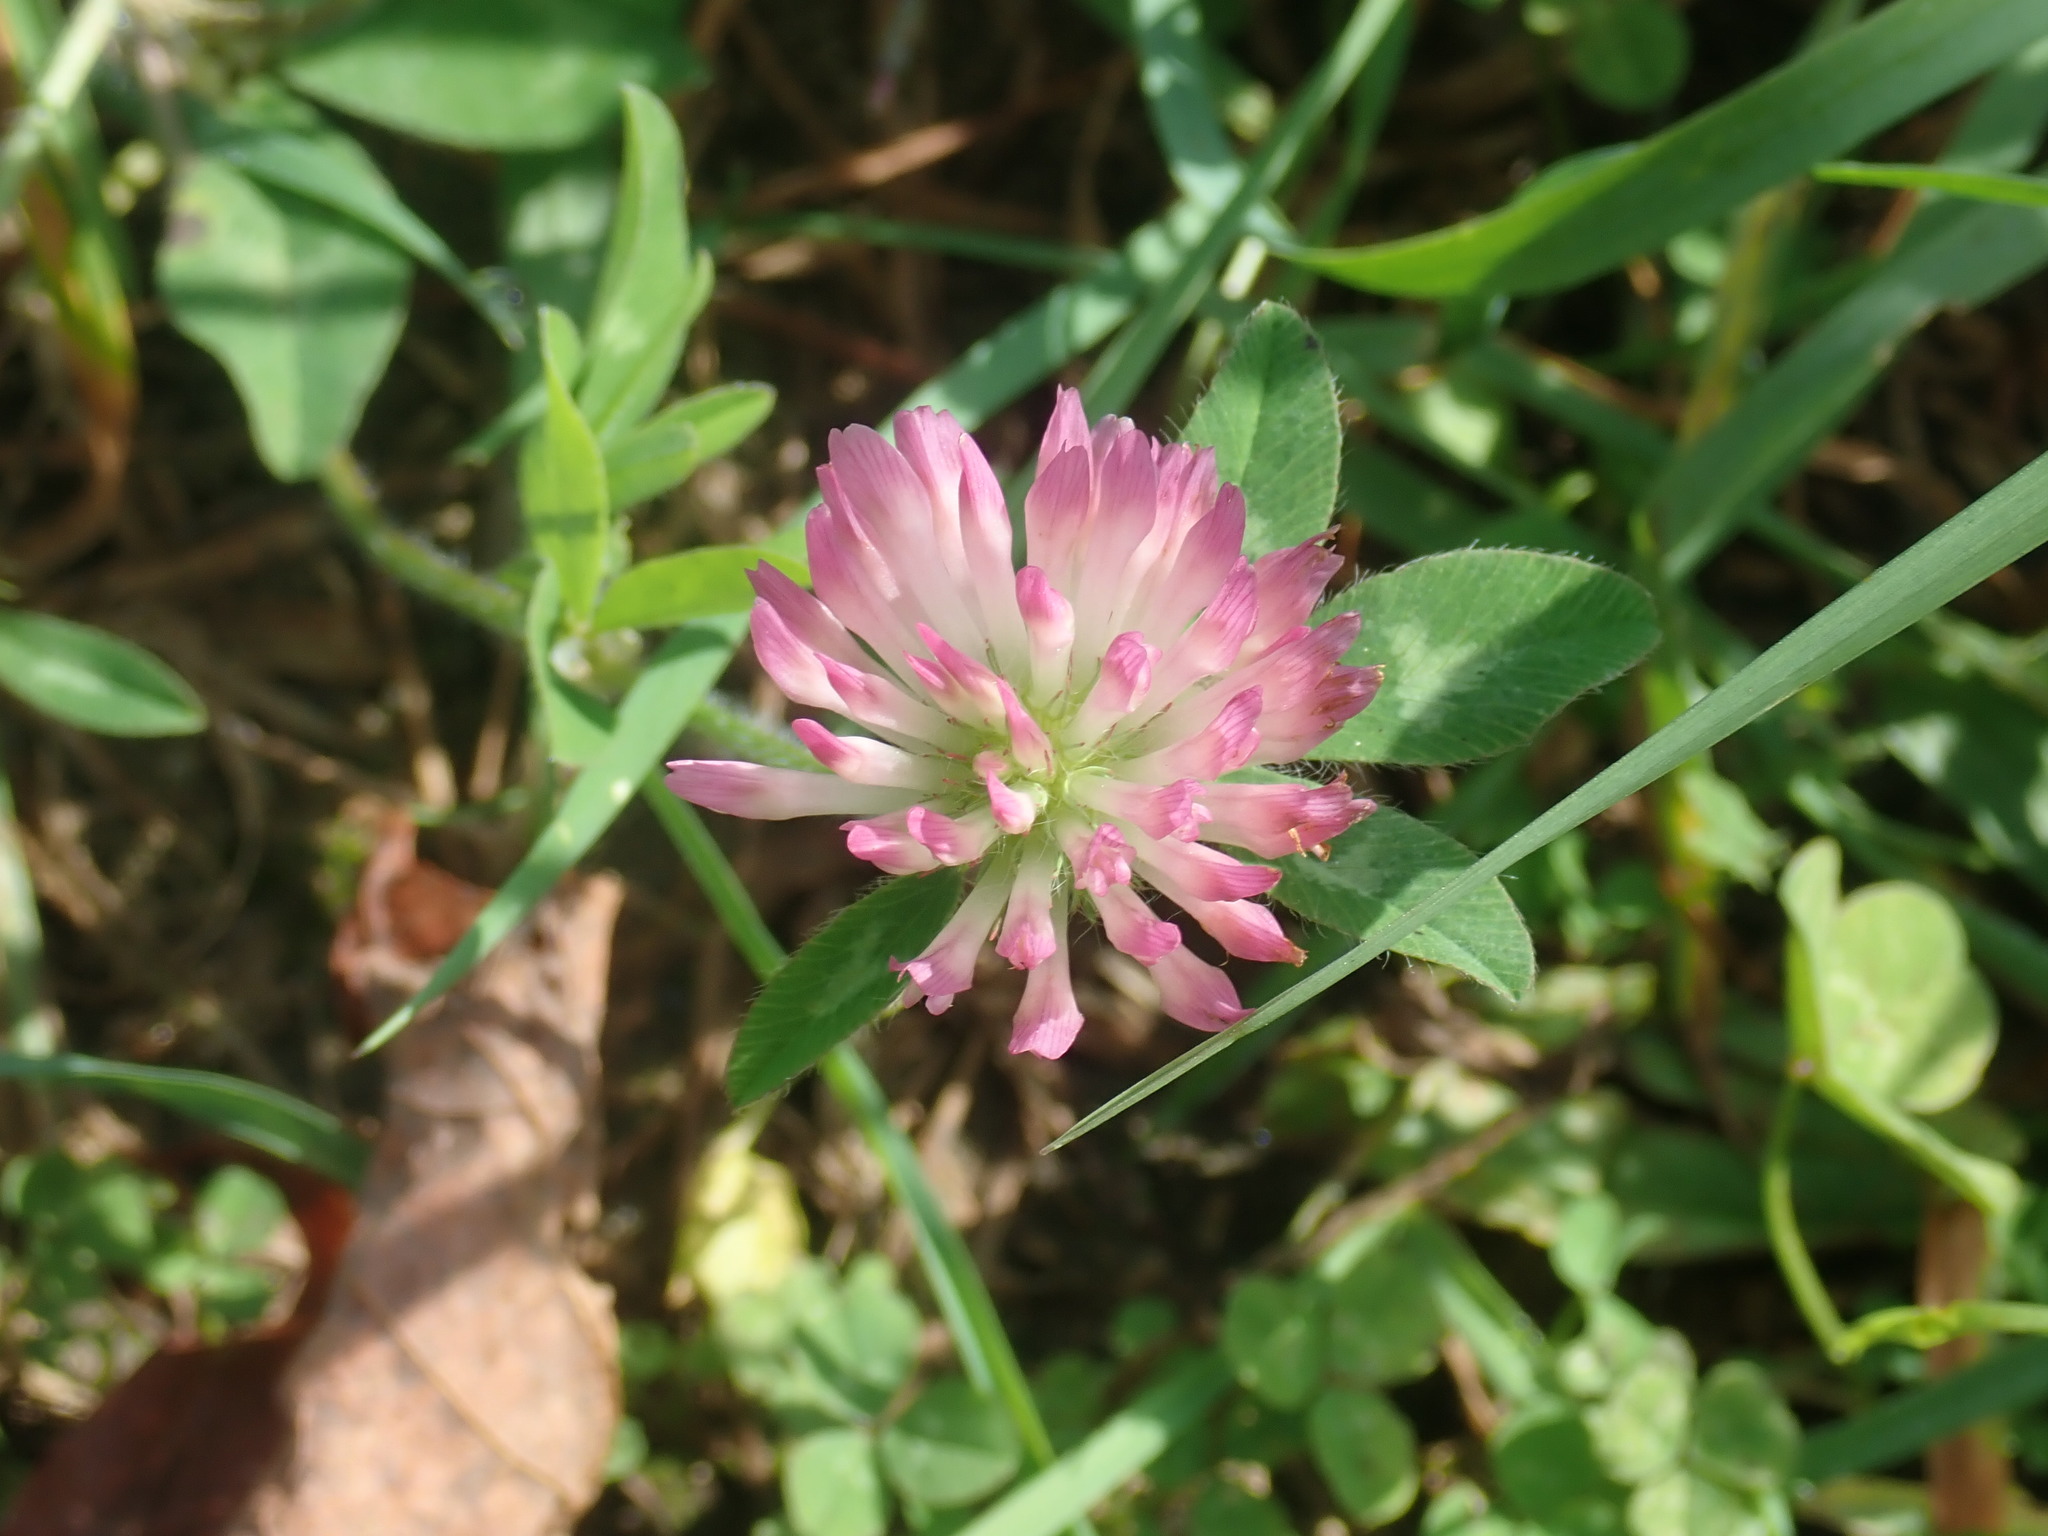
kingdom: Plantae
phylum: Tracheophyta
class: Magnoliopsida
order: Fabales
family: Fabaceae
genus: Trifolium
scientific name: Trifolium pratense
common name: Red clover
